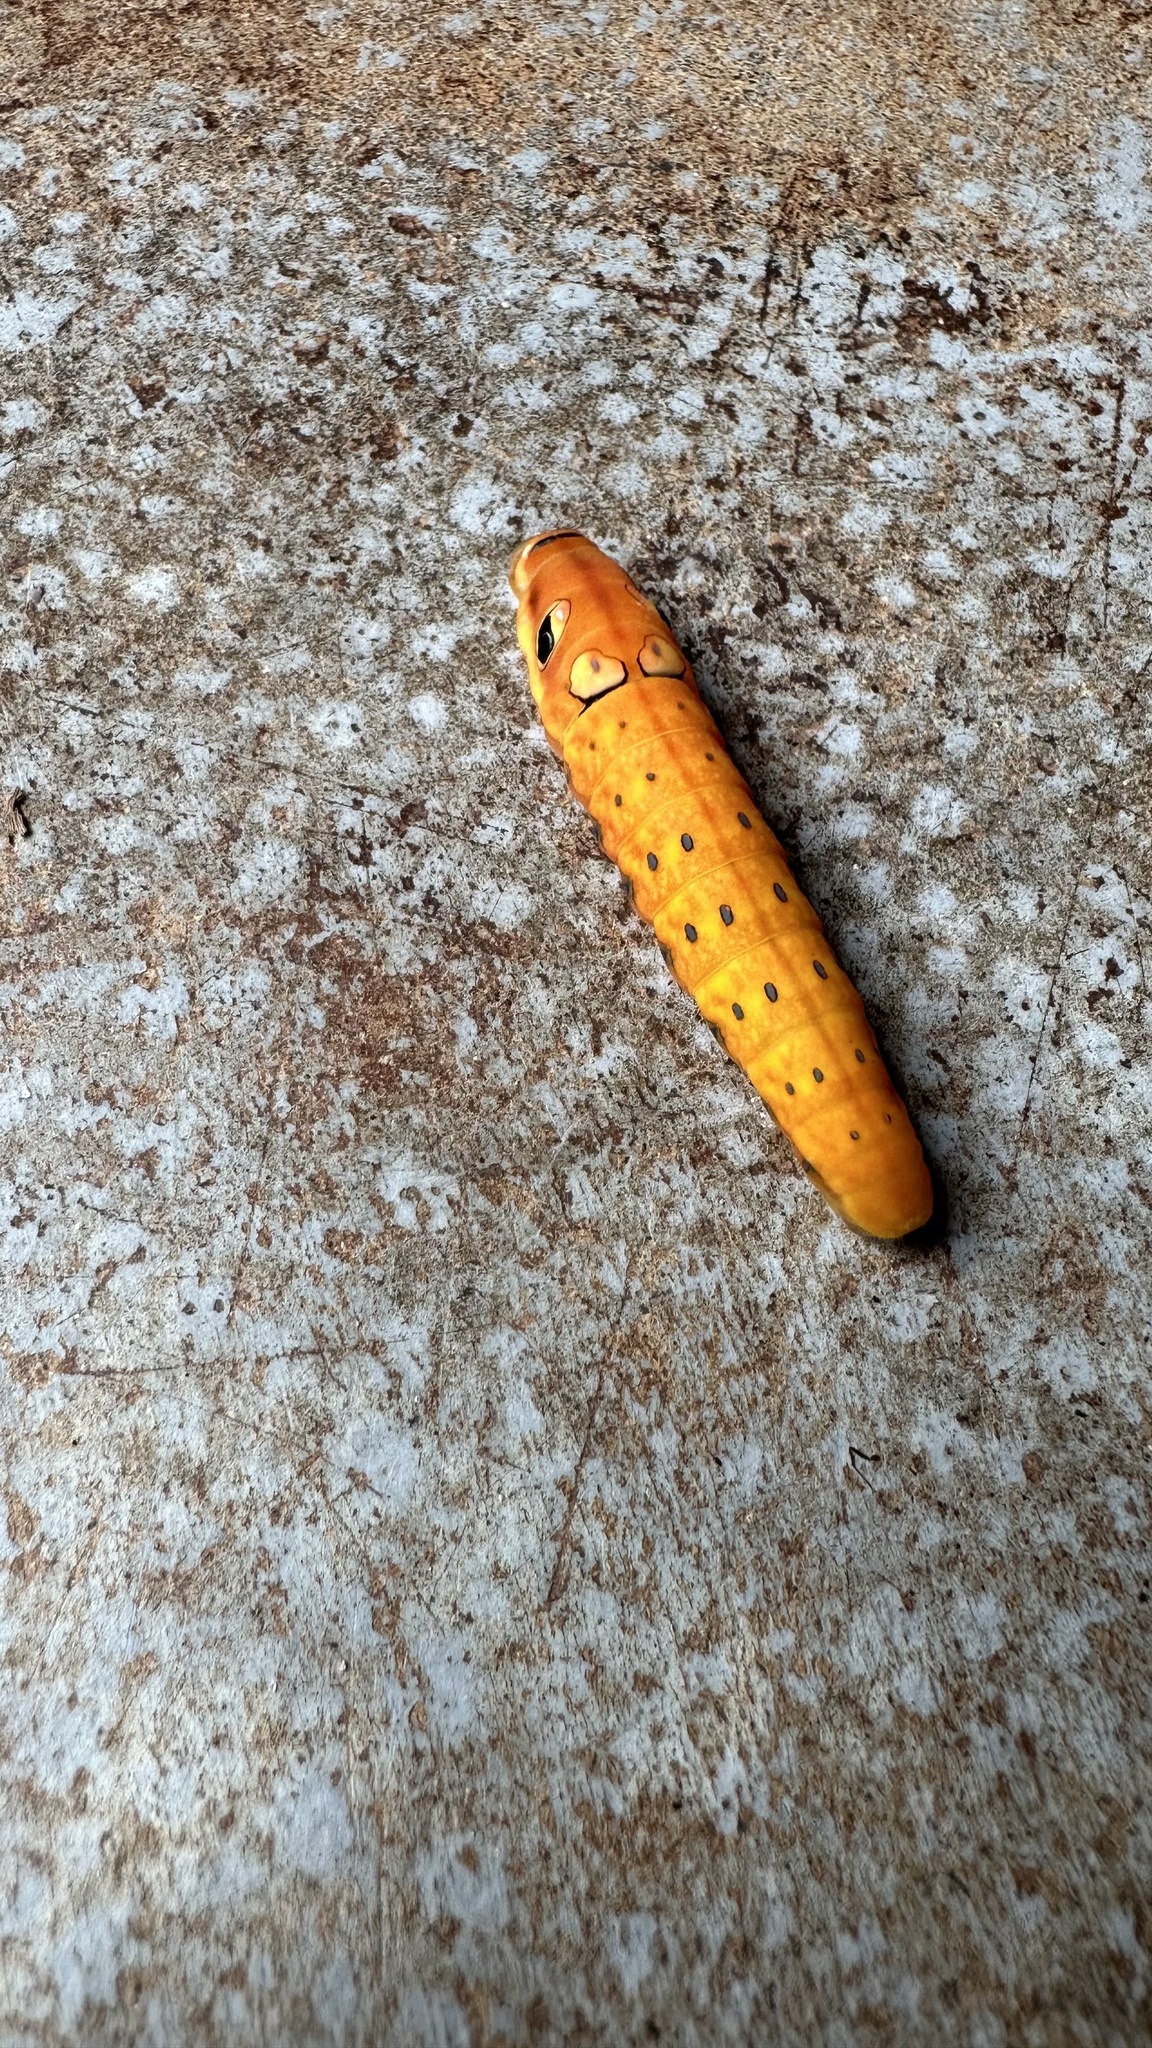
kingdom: Animalia
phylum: Arthropoda
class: Insecta
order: Lepidoptera
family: Papilionidae
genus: Papilio
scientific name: Papilio troilus
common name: Spicebush swallowtail
